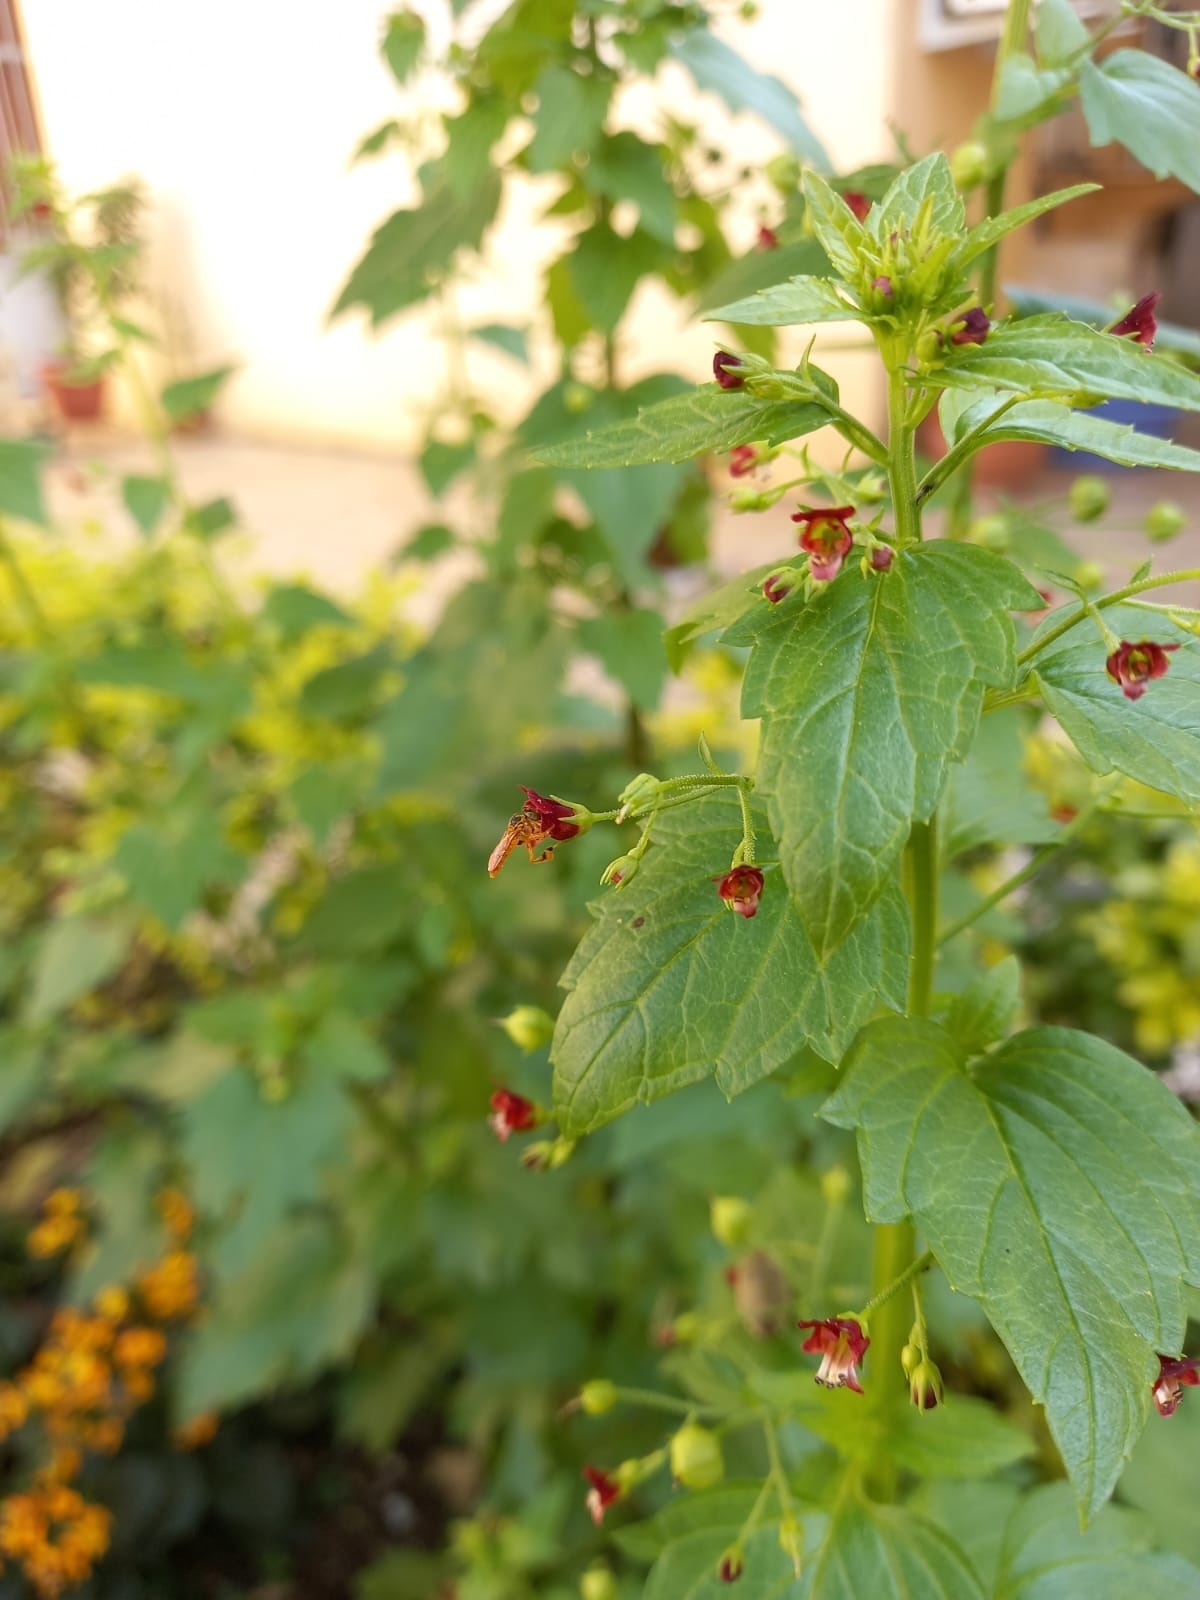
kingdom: Animalia
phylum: Arthropoda
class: Insecta
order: Hymenoptera
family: Apidae
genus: Tetragonisca
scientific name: Tetragonisca fiebrigi
